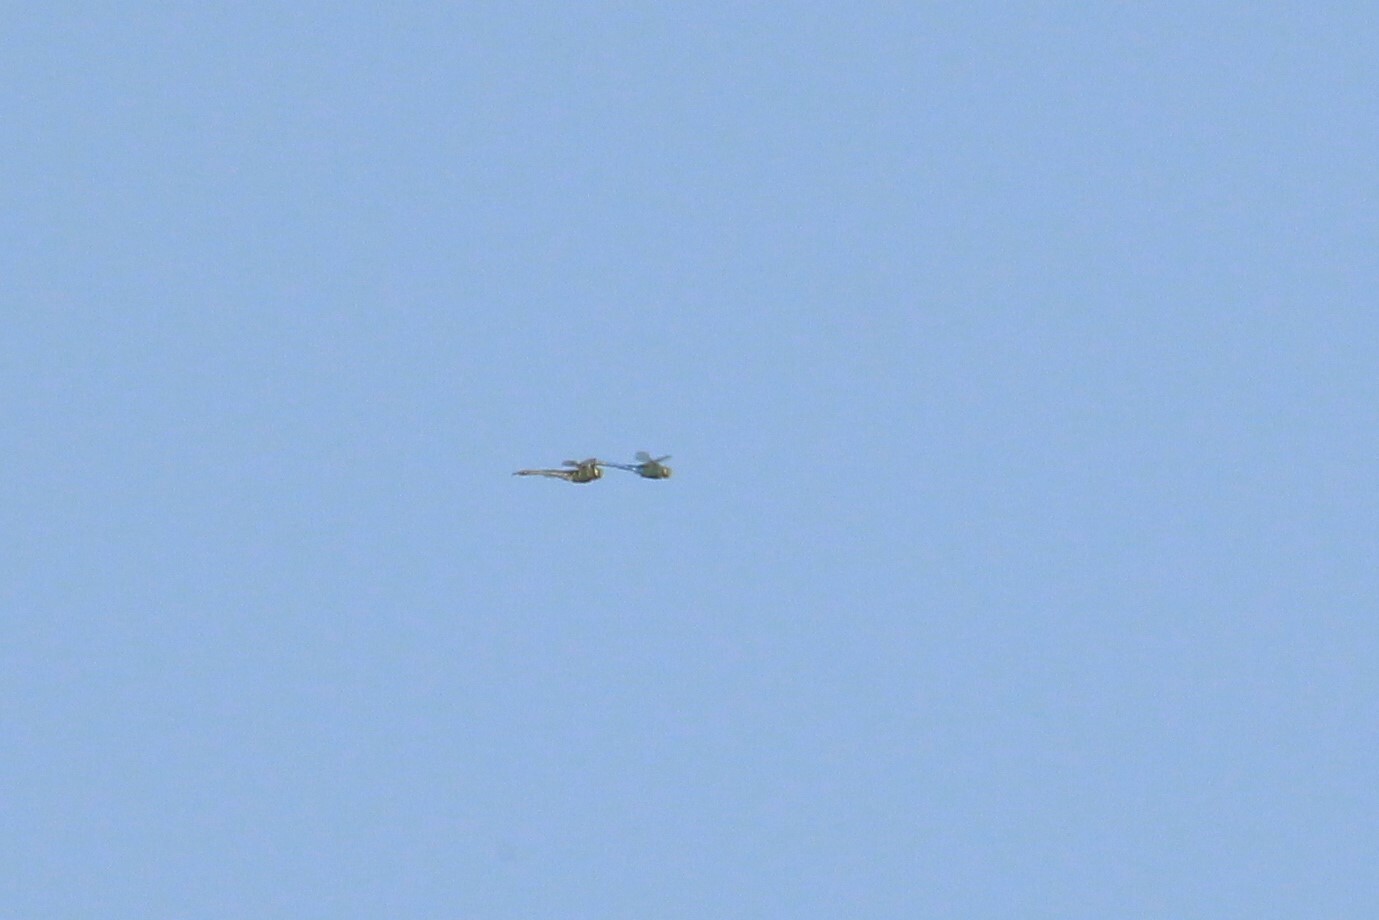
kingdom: Animalia
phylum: Arthropoda
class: Insecta
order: Odonata
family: Aeshnidae
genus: Anax
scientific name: Anax junius
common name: Common green darner
